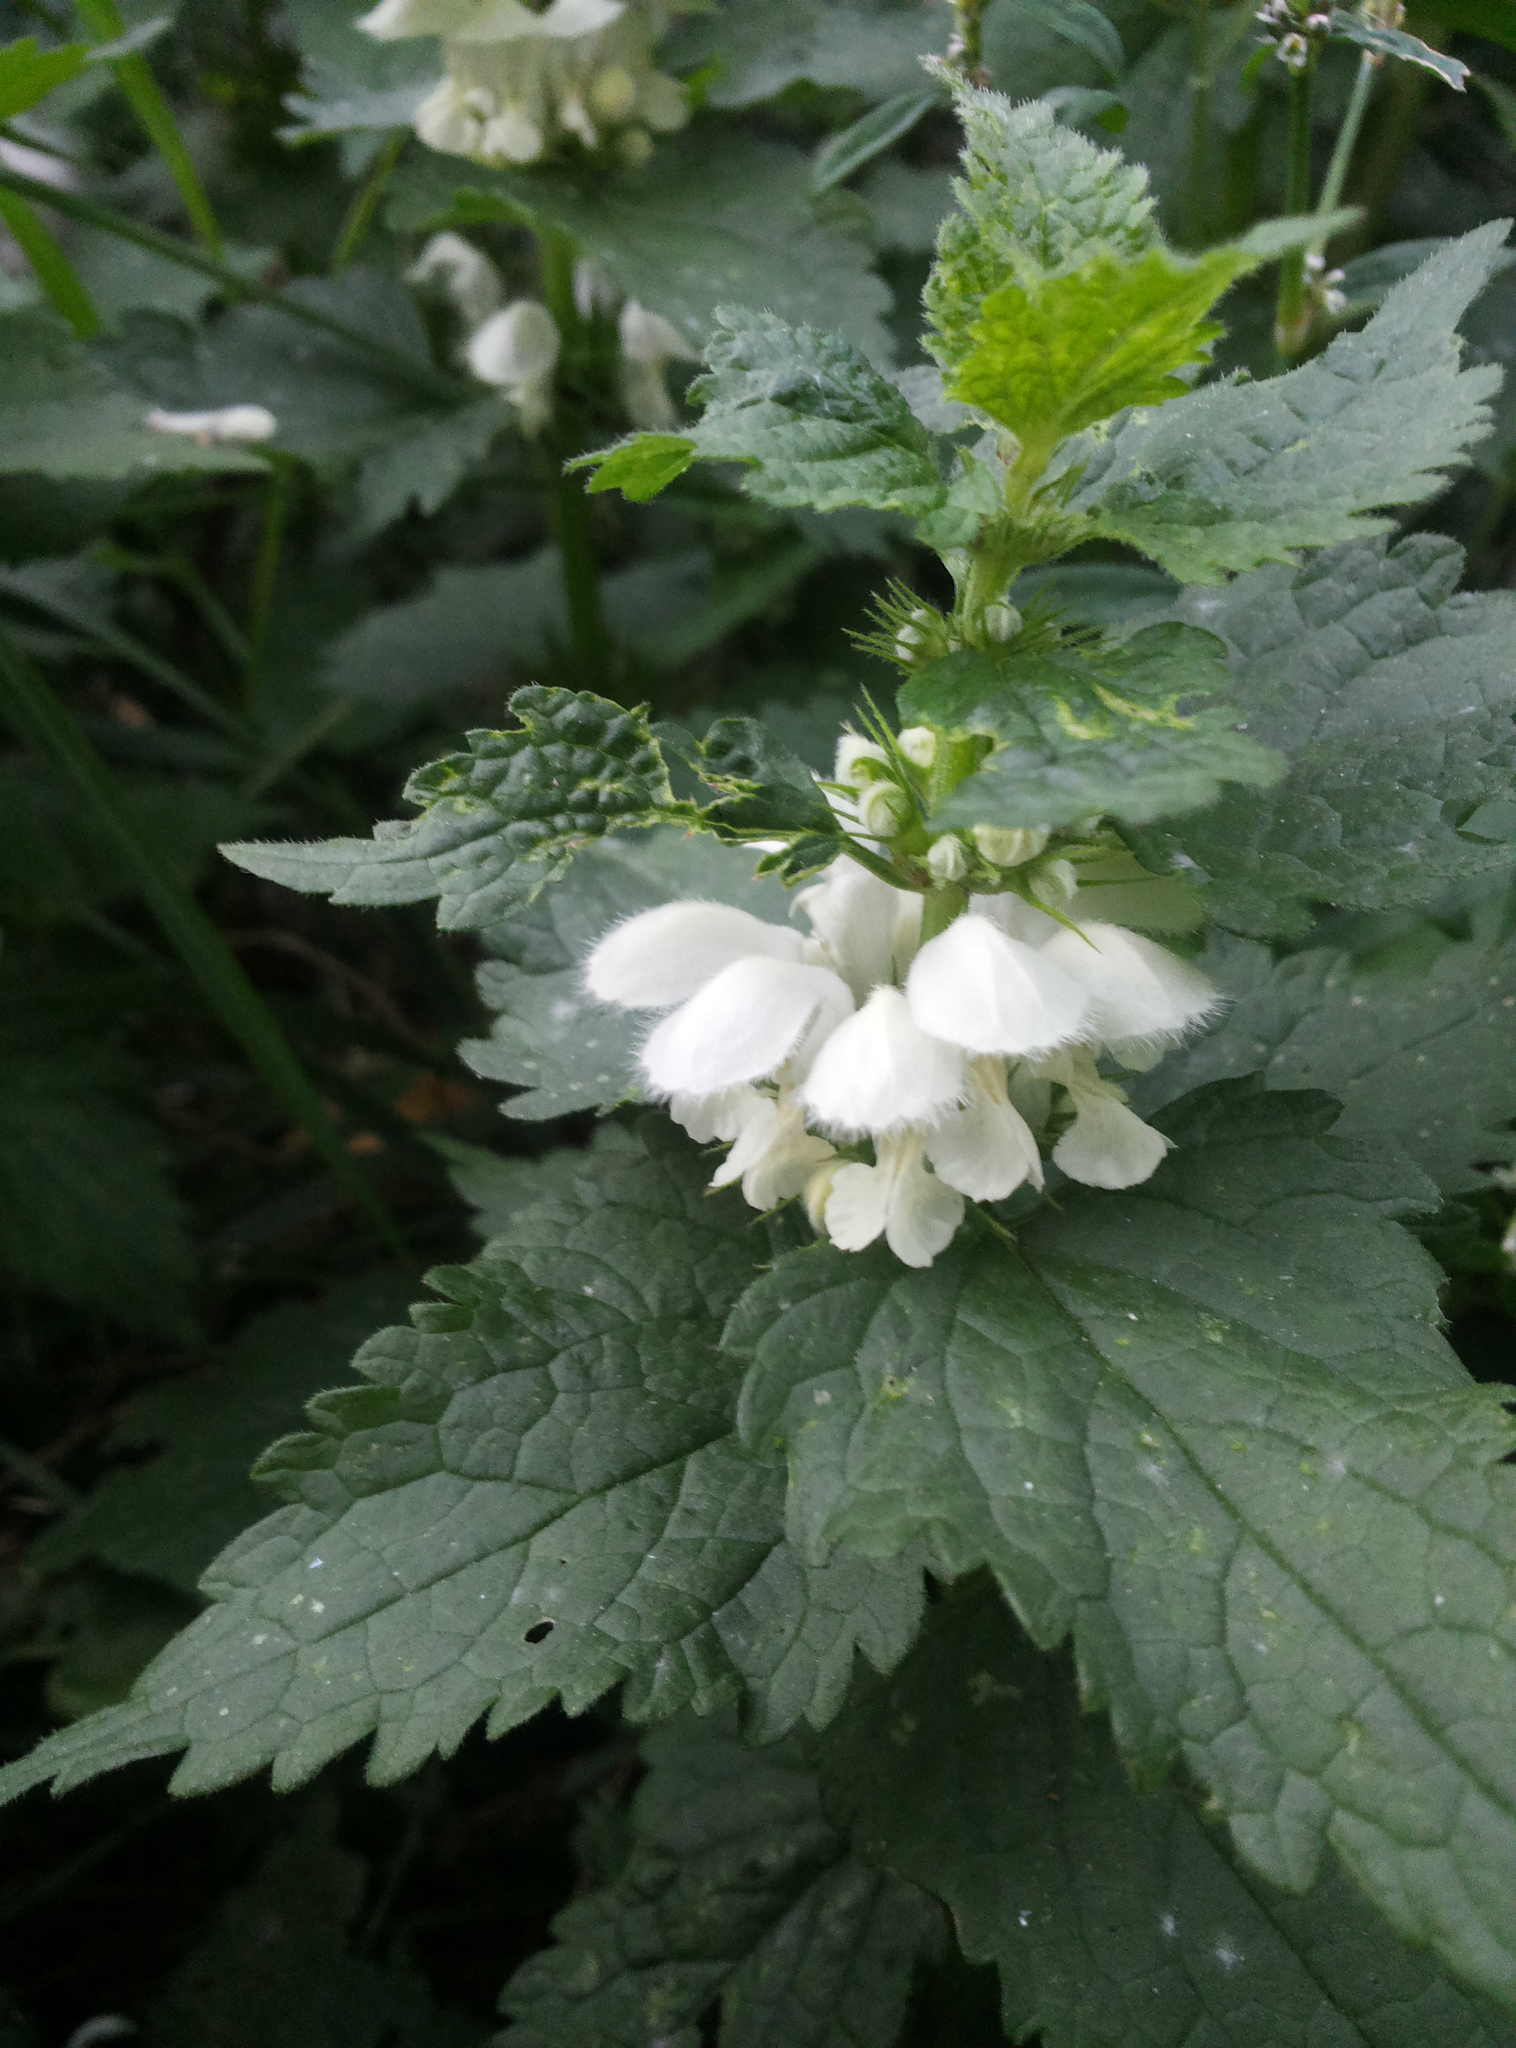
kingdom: Plantae
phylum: Tracheophyta
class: Magnoliopsida
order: Lamiales
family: Lamiaceae
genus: Lamium
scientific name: Lamium album
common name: White dead-nettle
